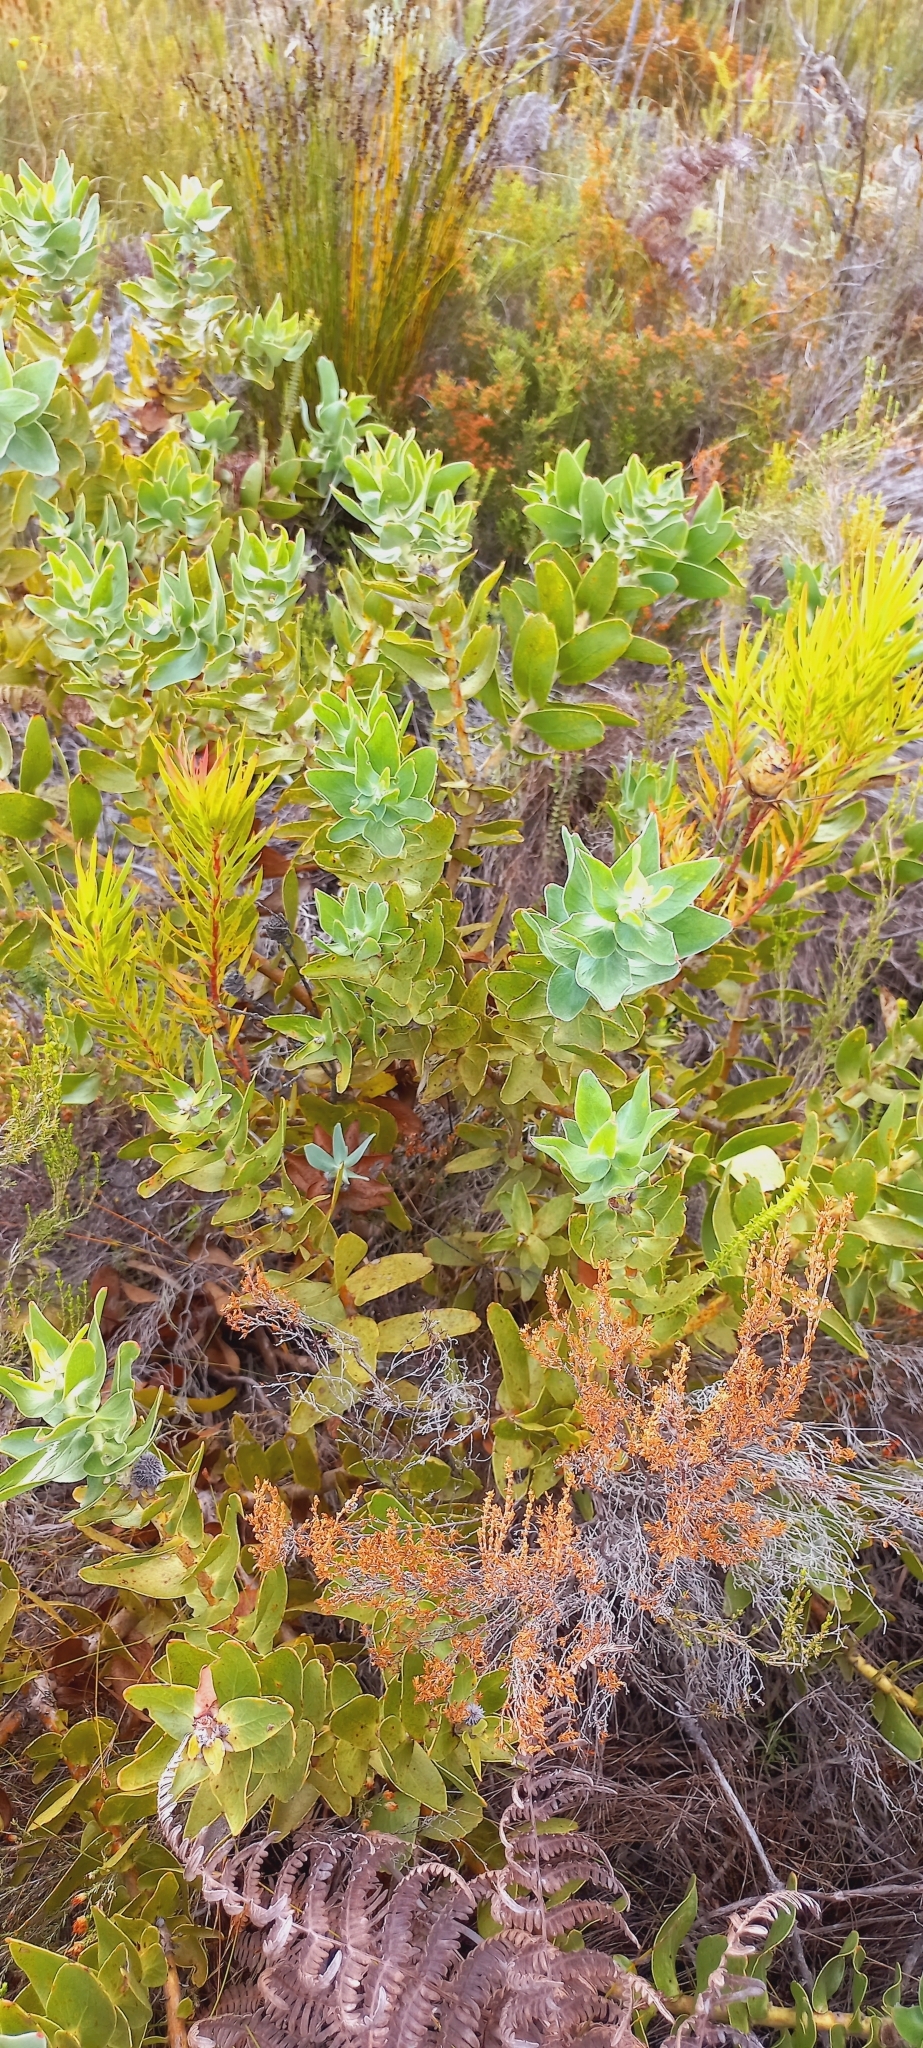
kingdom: Plantae
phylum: Tracheophyta
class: Magnoliopsida
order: Proteales
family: Proteaceae
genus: Leucospermum
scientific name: Leucospermum cordifolium
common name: Red pincushion-protea
